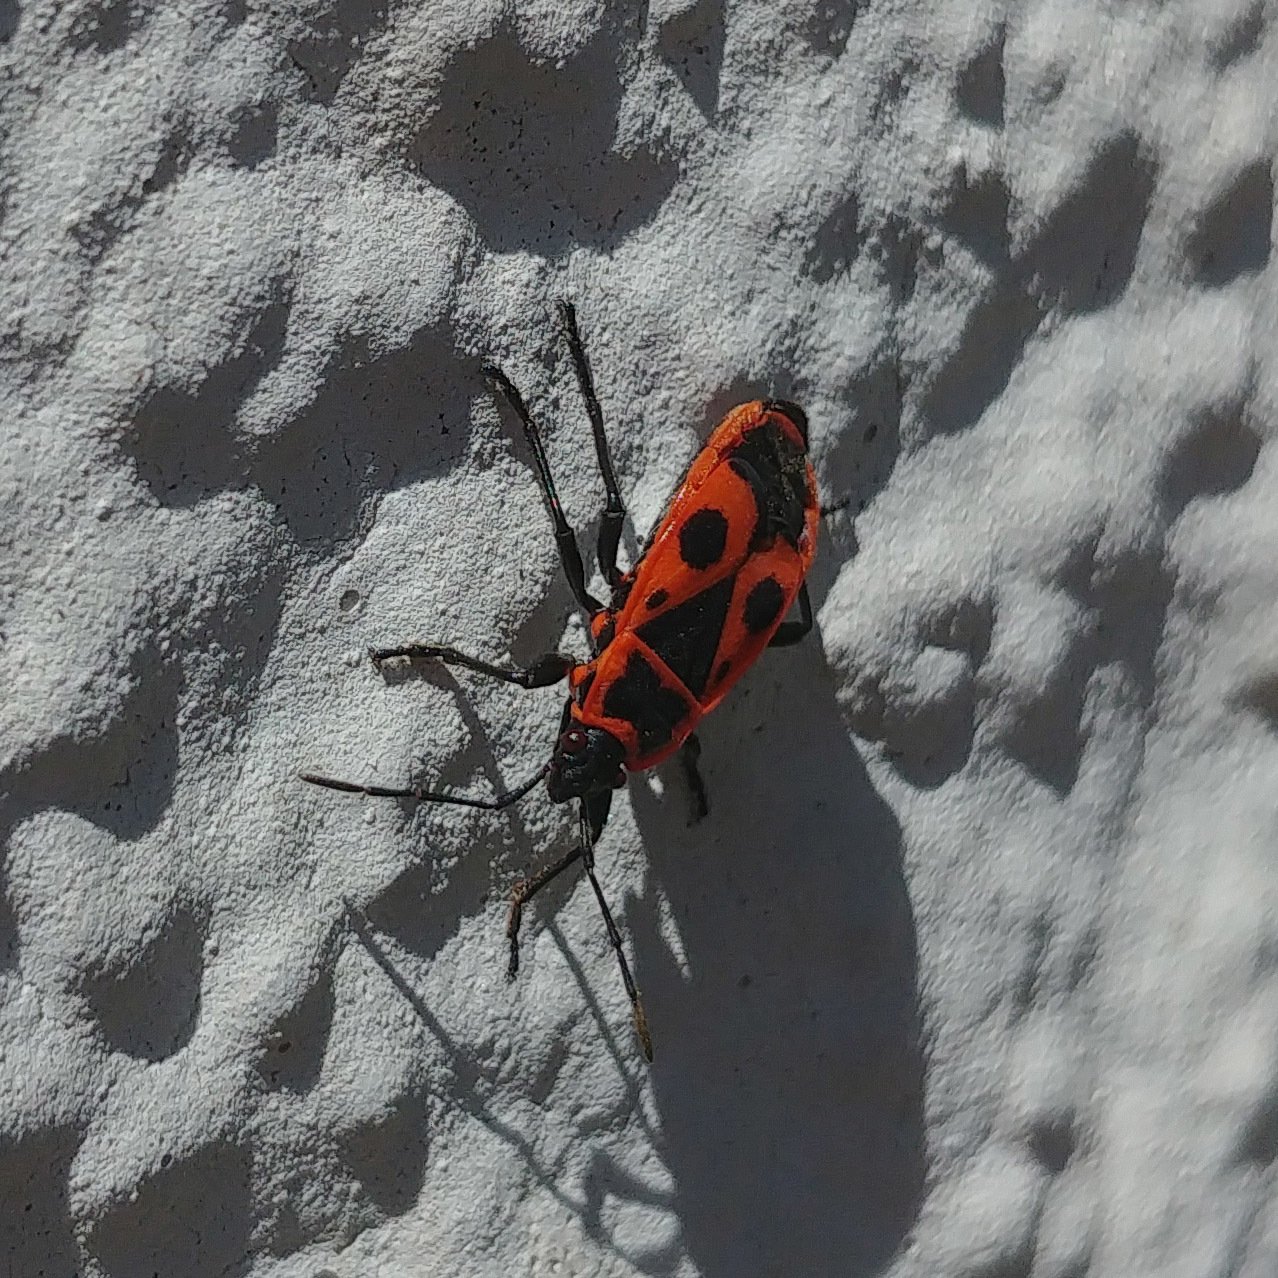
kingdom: Animalia
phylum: Arthropoda
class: Insecta
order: Hemiptera
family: Pyrrhocoridae
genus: Pyrrhocoris
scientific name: Pyrrhocoris apterus
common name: Firebug
